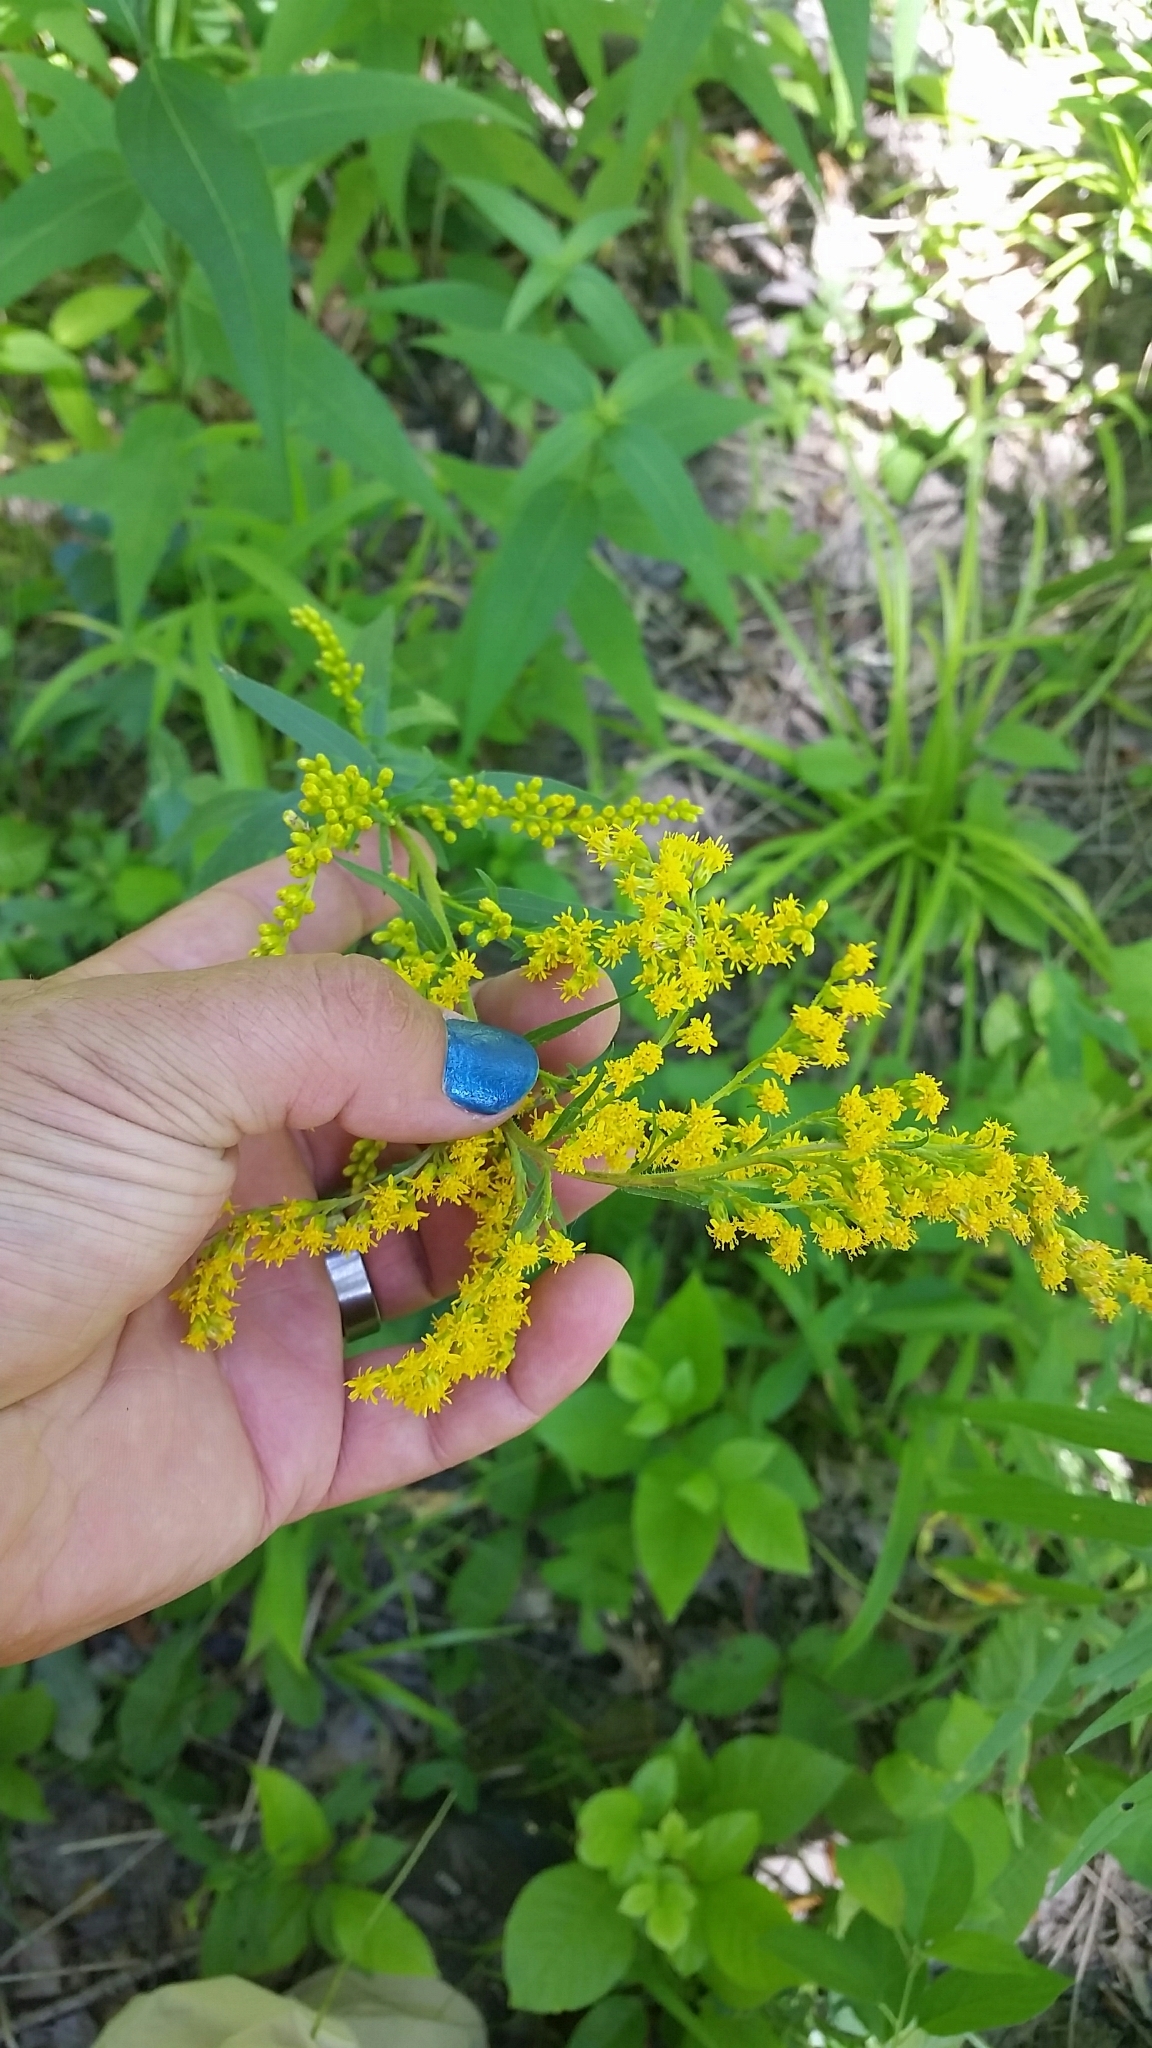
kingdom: Plantae
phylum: Tracheophyta
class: Magnoliopsida
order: Asterales
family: Asteraceae
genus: Solidago
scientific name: Solidago juncea
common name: Early goldenrod
